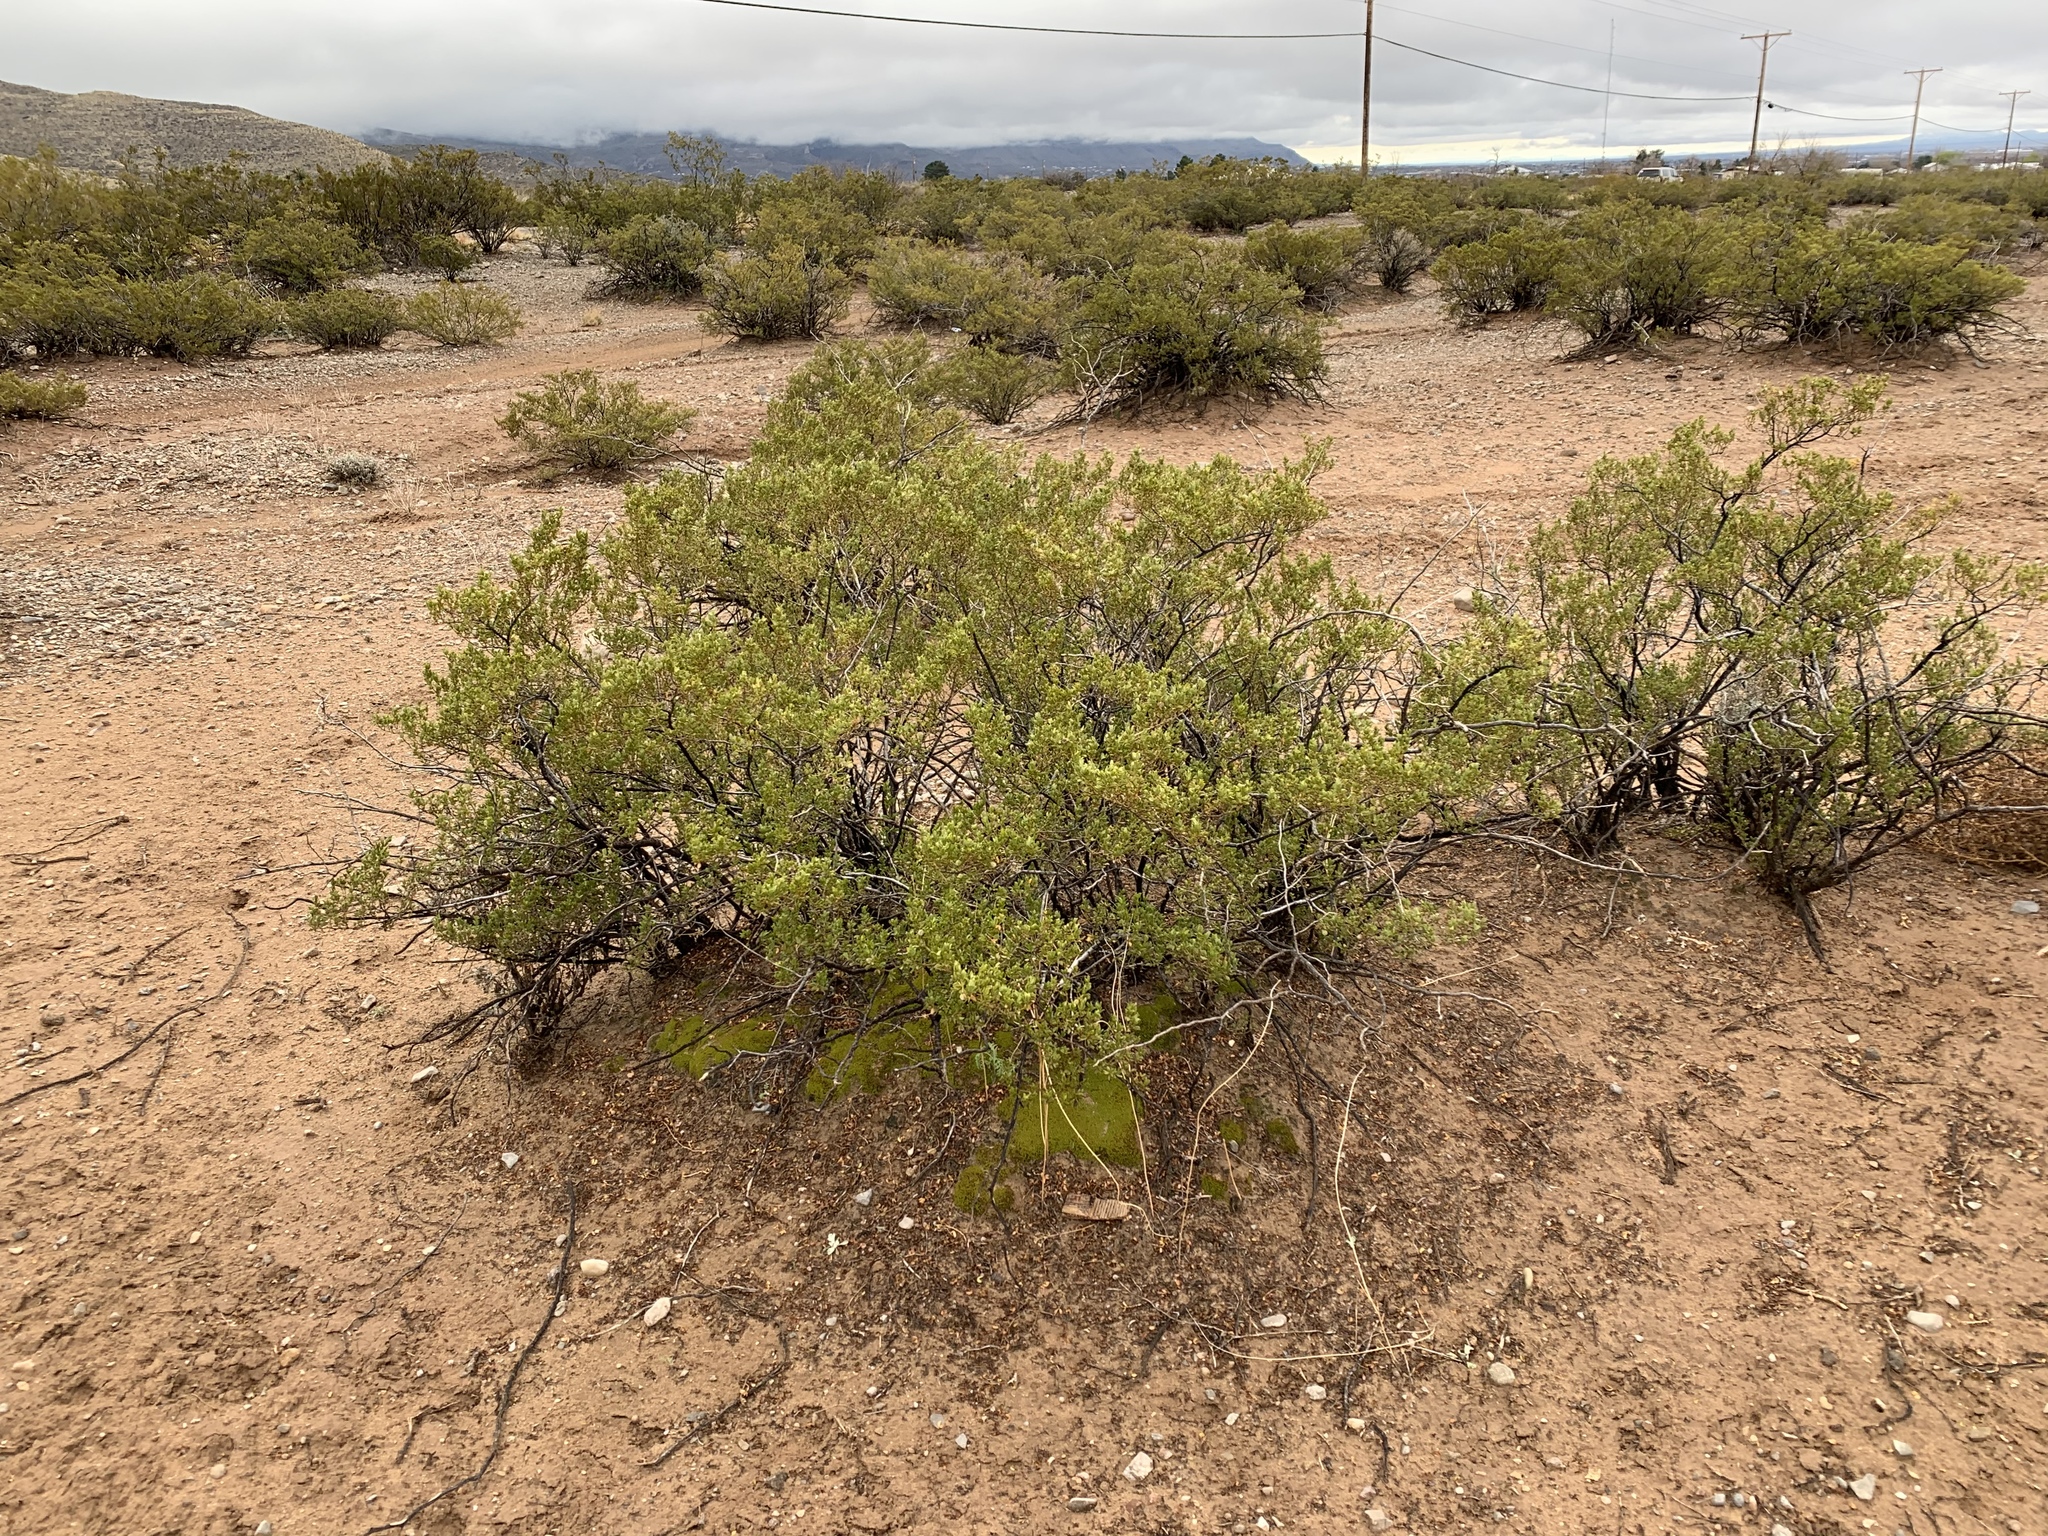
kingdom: Plantae
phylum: Tracheophyta
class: Magnoliopsida
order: Zygophyllales
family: Zygophyllaceae
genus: Larrea
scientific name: Larrea tridentata
